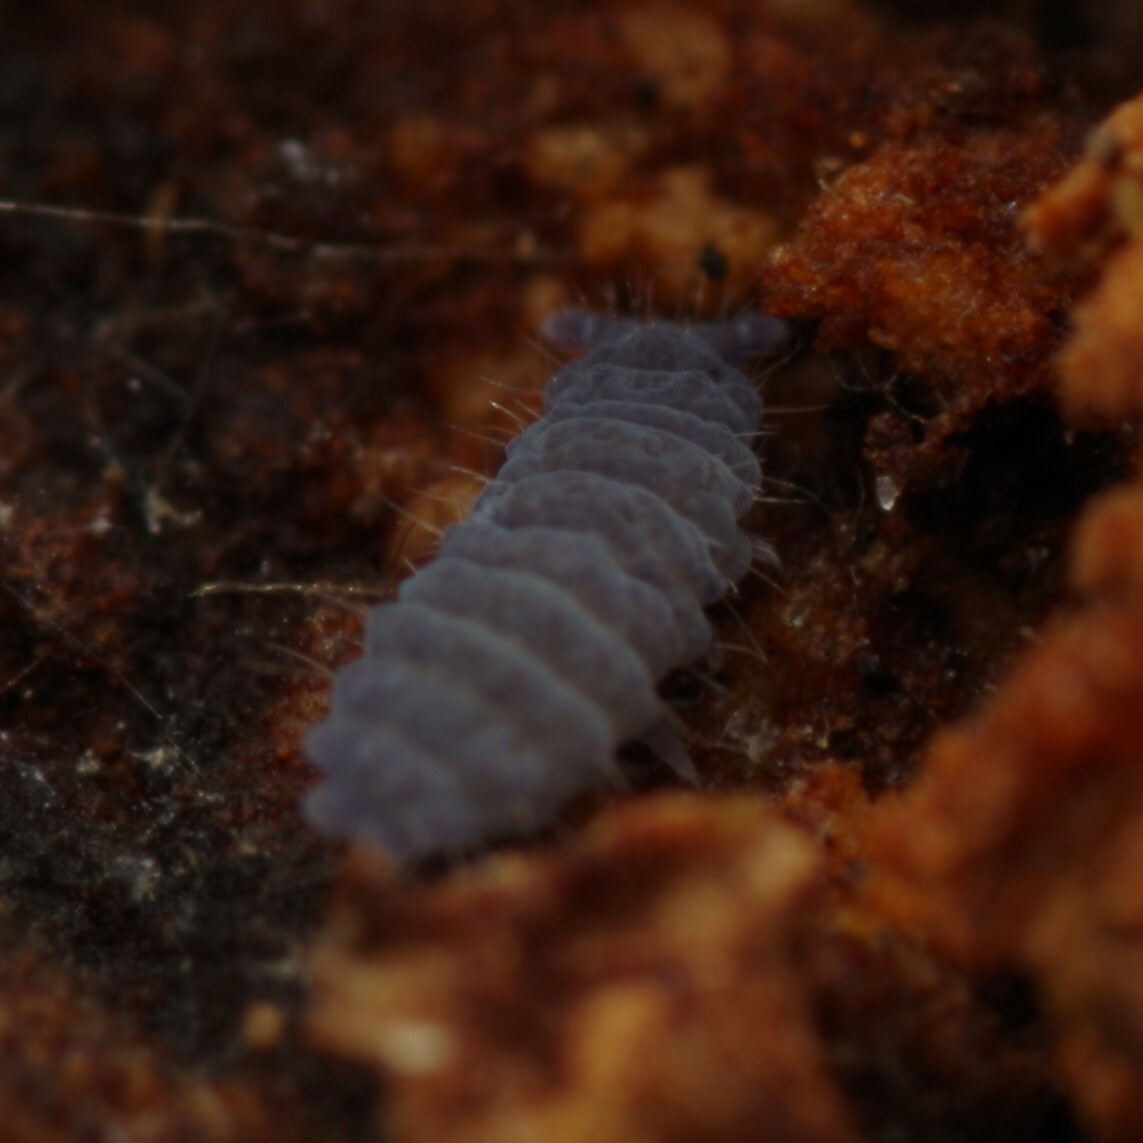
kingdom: Animalia
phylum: Arthropoda
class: Collembola
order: Poduromorpha
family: Neanuridae
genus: Neanura
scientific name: Neanura muscorum
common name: Springtail
